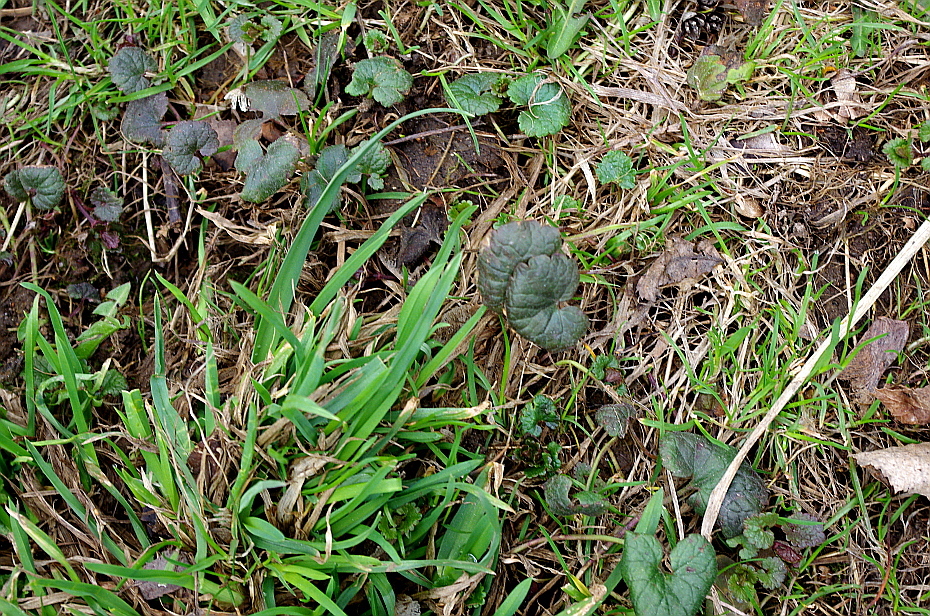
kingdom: Plantae
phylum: Tracheophyta
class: Magnoliopsida
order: Lamiales
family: Lamiaceae
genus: Glechoma
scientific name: Glechoma hederacea
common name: Ground ivy
